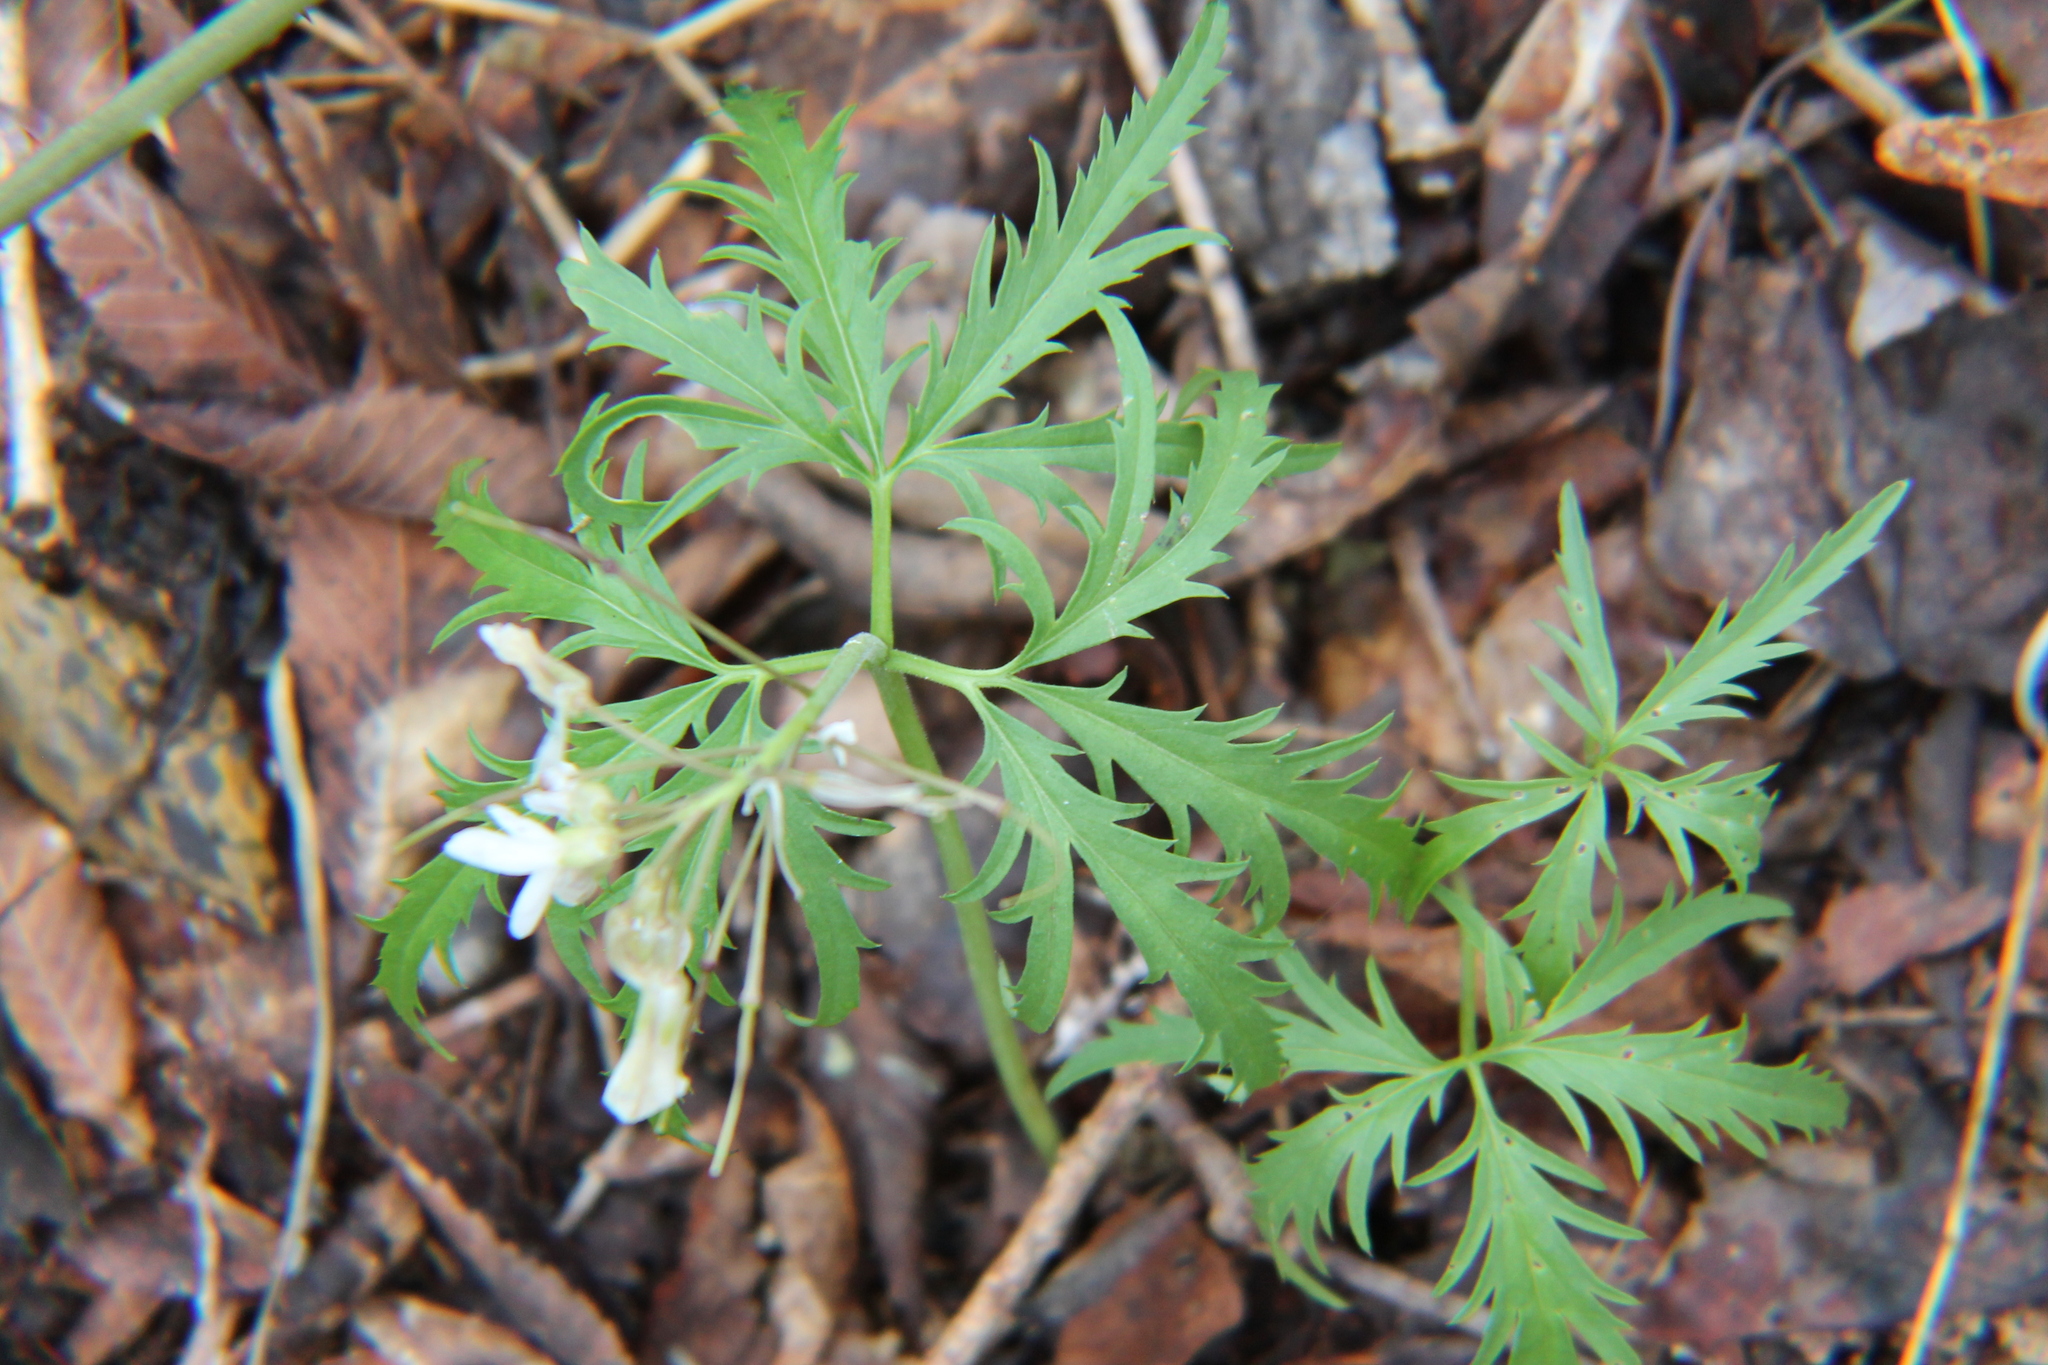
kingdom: Plantae
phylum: Tracheophyta
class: Magnoliopsida
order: Brassicales
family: Brassicaceae
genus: Cardamine
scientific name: Cardamine concatenata
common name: Cut-leaf toothcup
